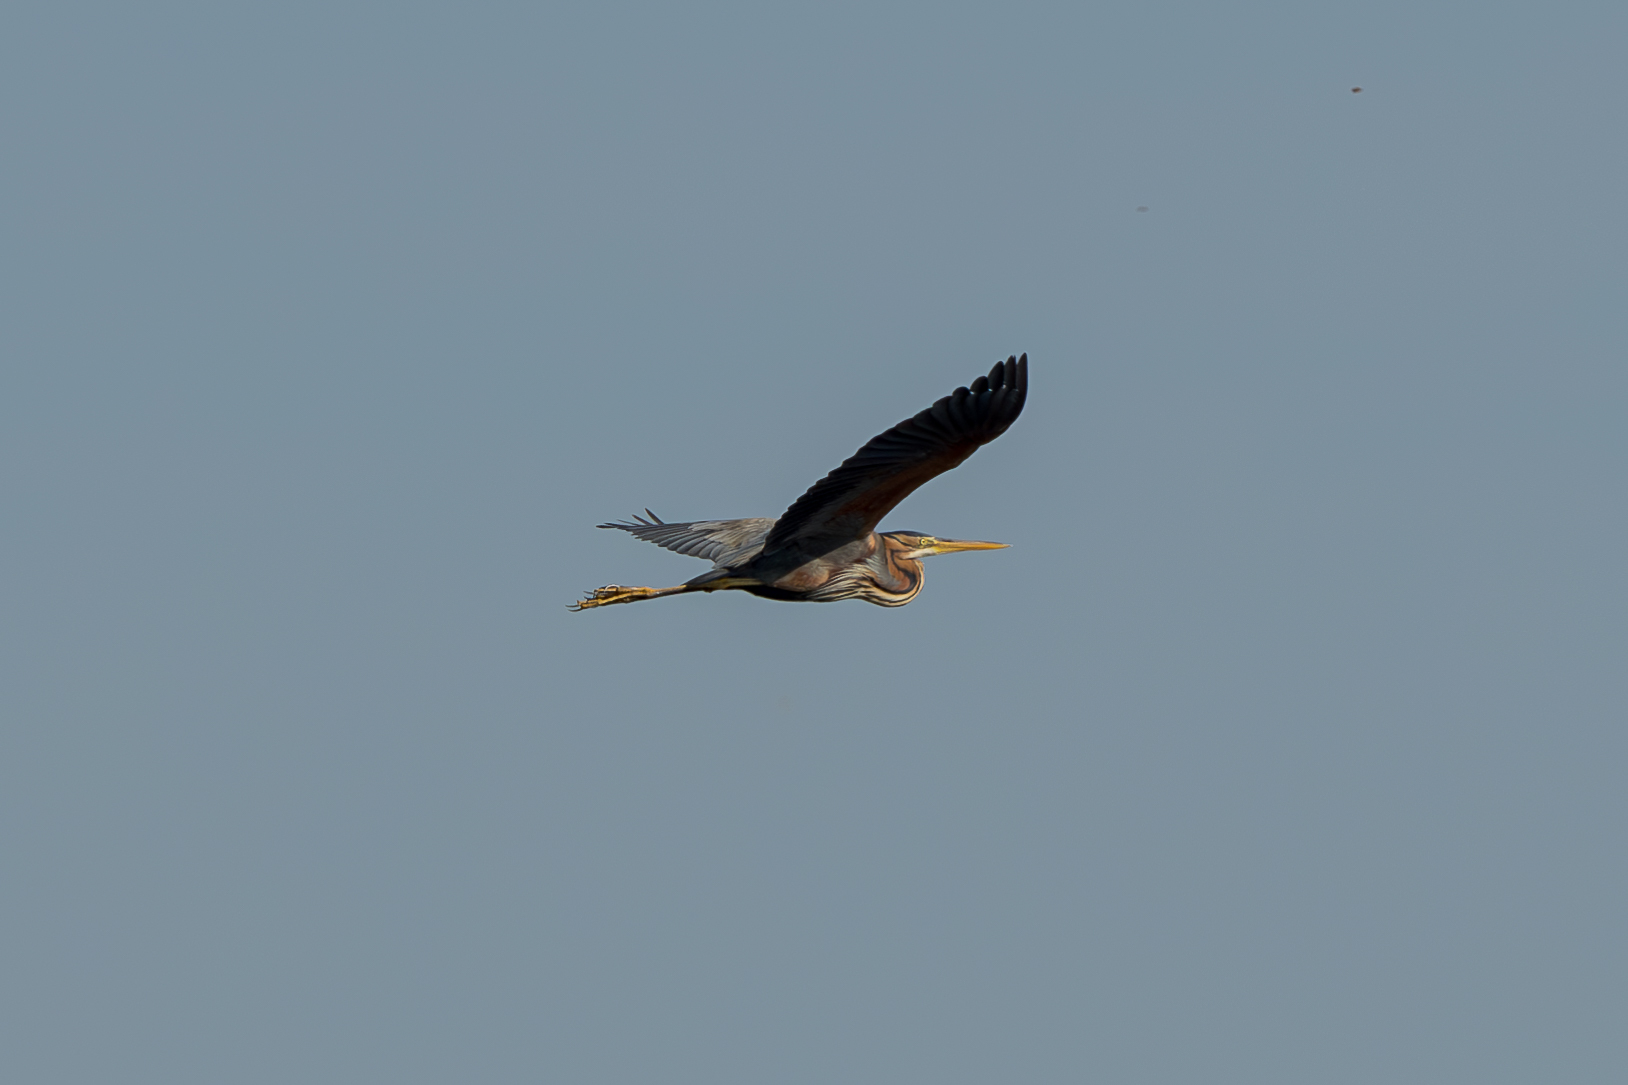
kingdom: Animalia
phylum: Chordata
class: Aves
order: Pelecaniformes
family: Ardeidae
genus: Ardea
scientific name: Ardea purpurea
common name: Purple heron
